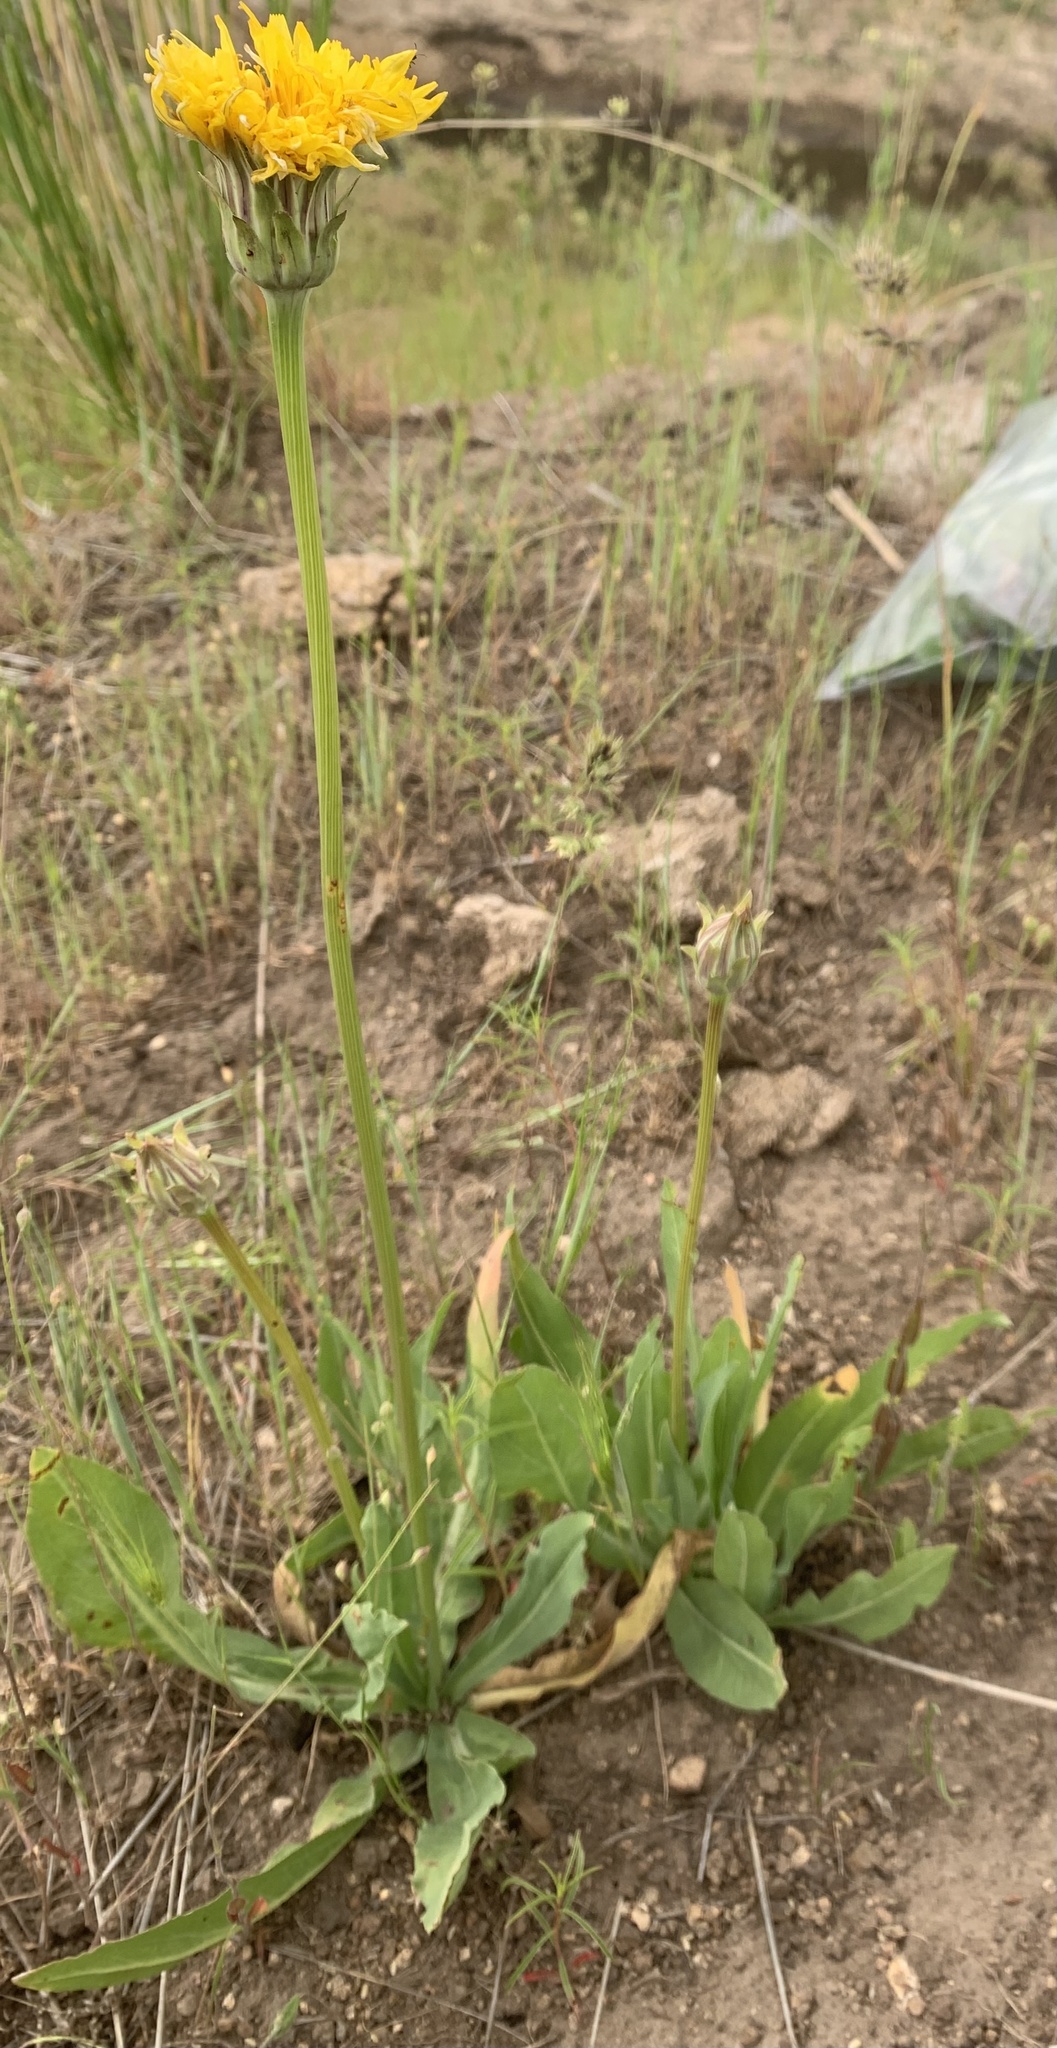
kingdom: Plantae
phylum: Tracheophyta
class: Magnoliopsida
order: Asterales
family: Asteraceae
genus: Agoseris
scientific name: Agoseris glauca
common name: Prairie agoseris
